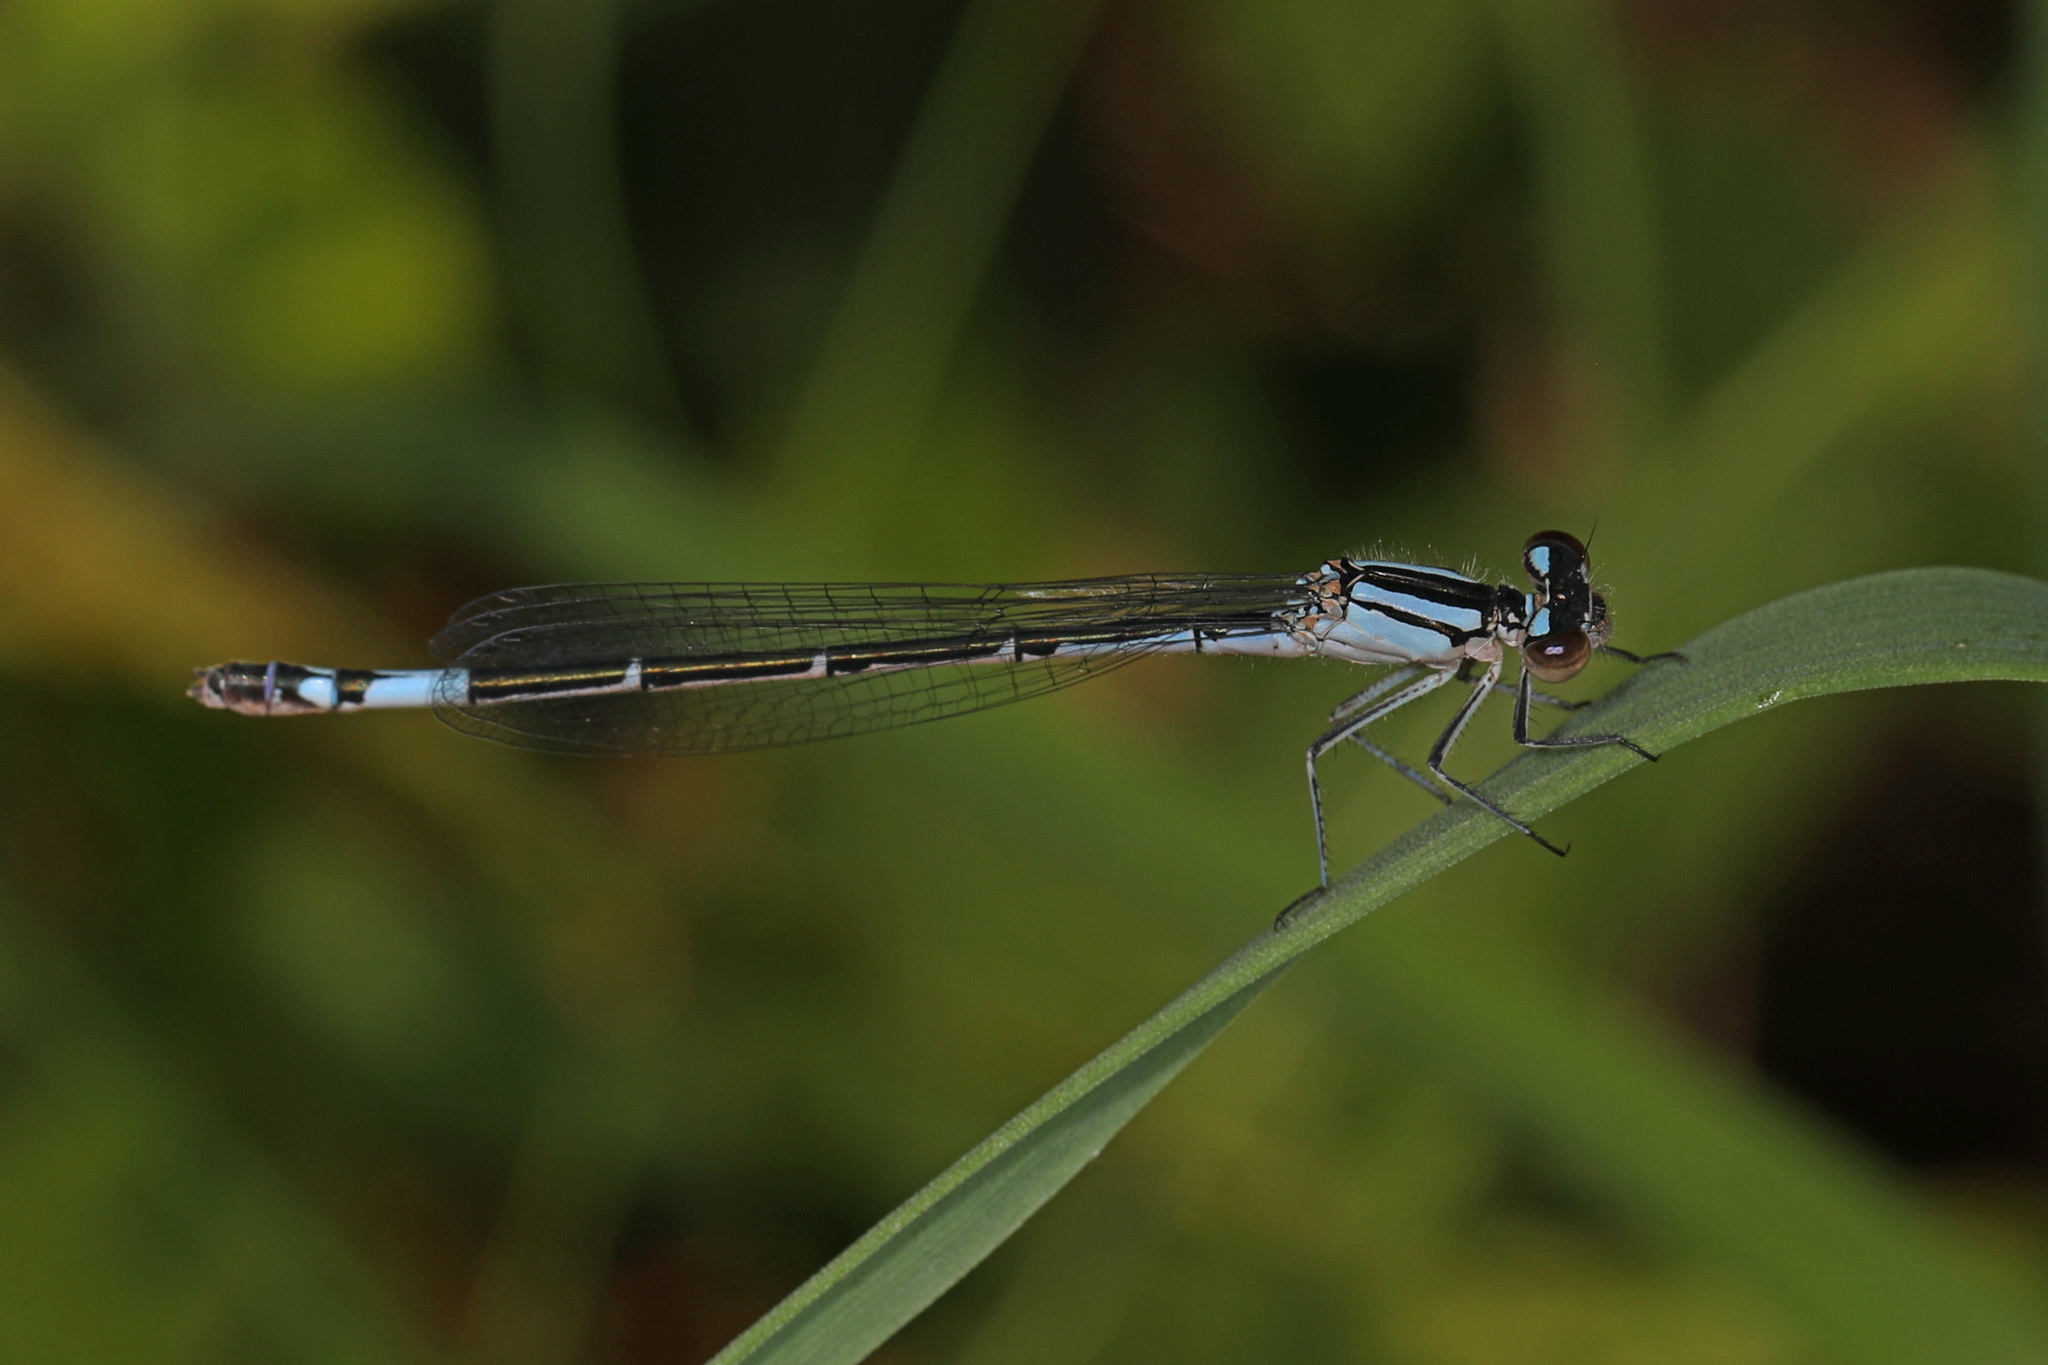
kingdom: Animalia
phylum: Arthropoda
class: Insecta
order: Odonata
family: Coenagrionidae
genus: Enallagma
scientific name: Enallagma aspersum
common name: Azure bluet
